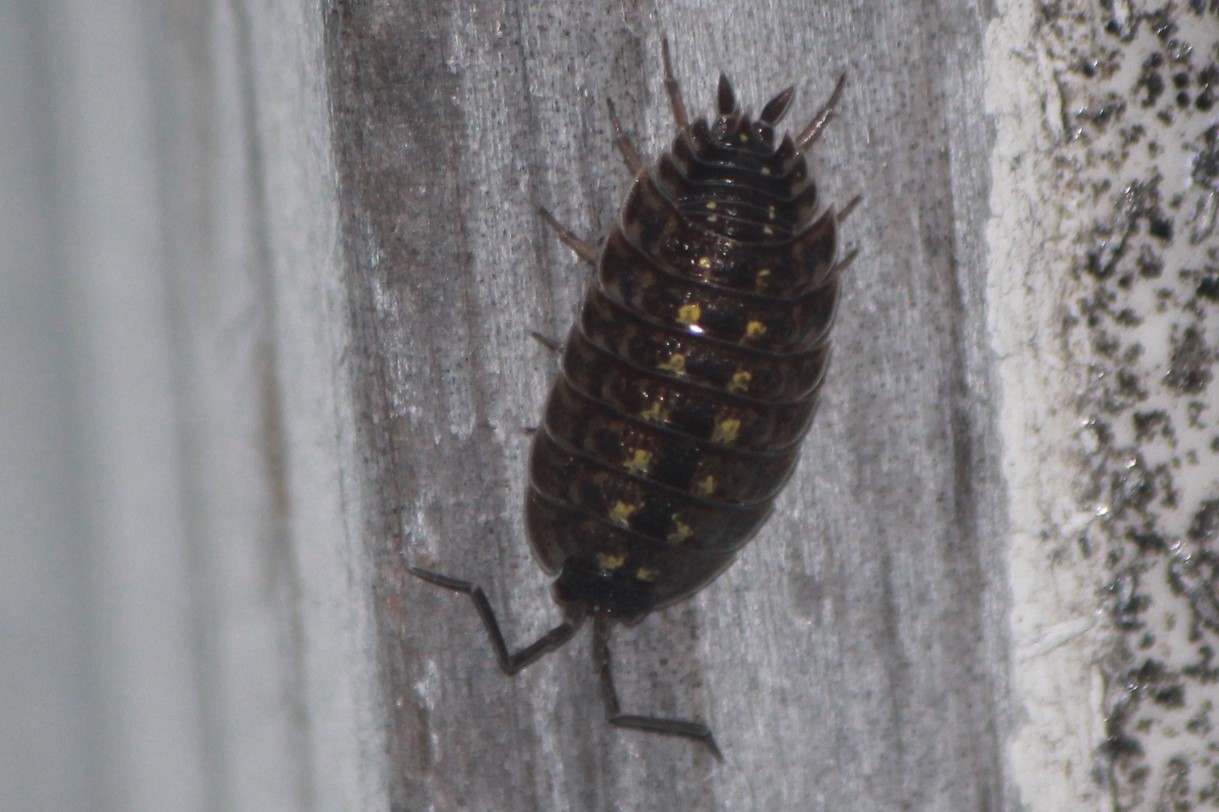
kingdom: Animalia
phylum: Arthropoda
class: Malacostraca
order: Isopoda
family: Porcellionidae
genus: Porcellio
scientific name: Porcellio spinicornis
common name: Painted woodlouse
